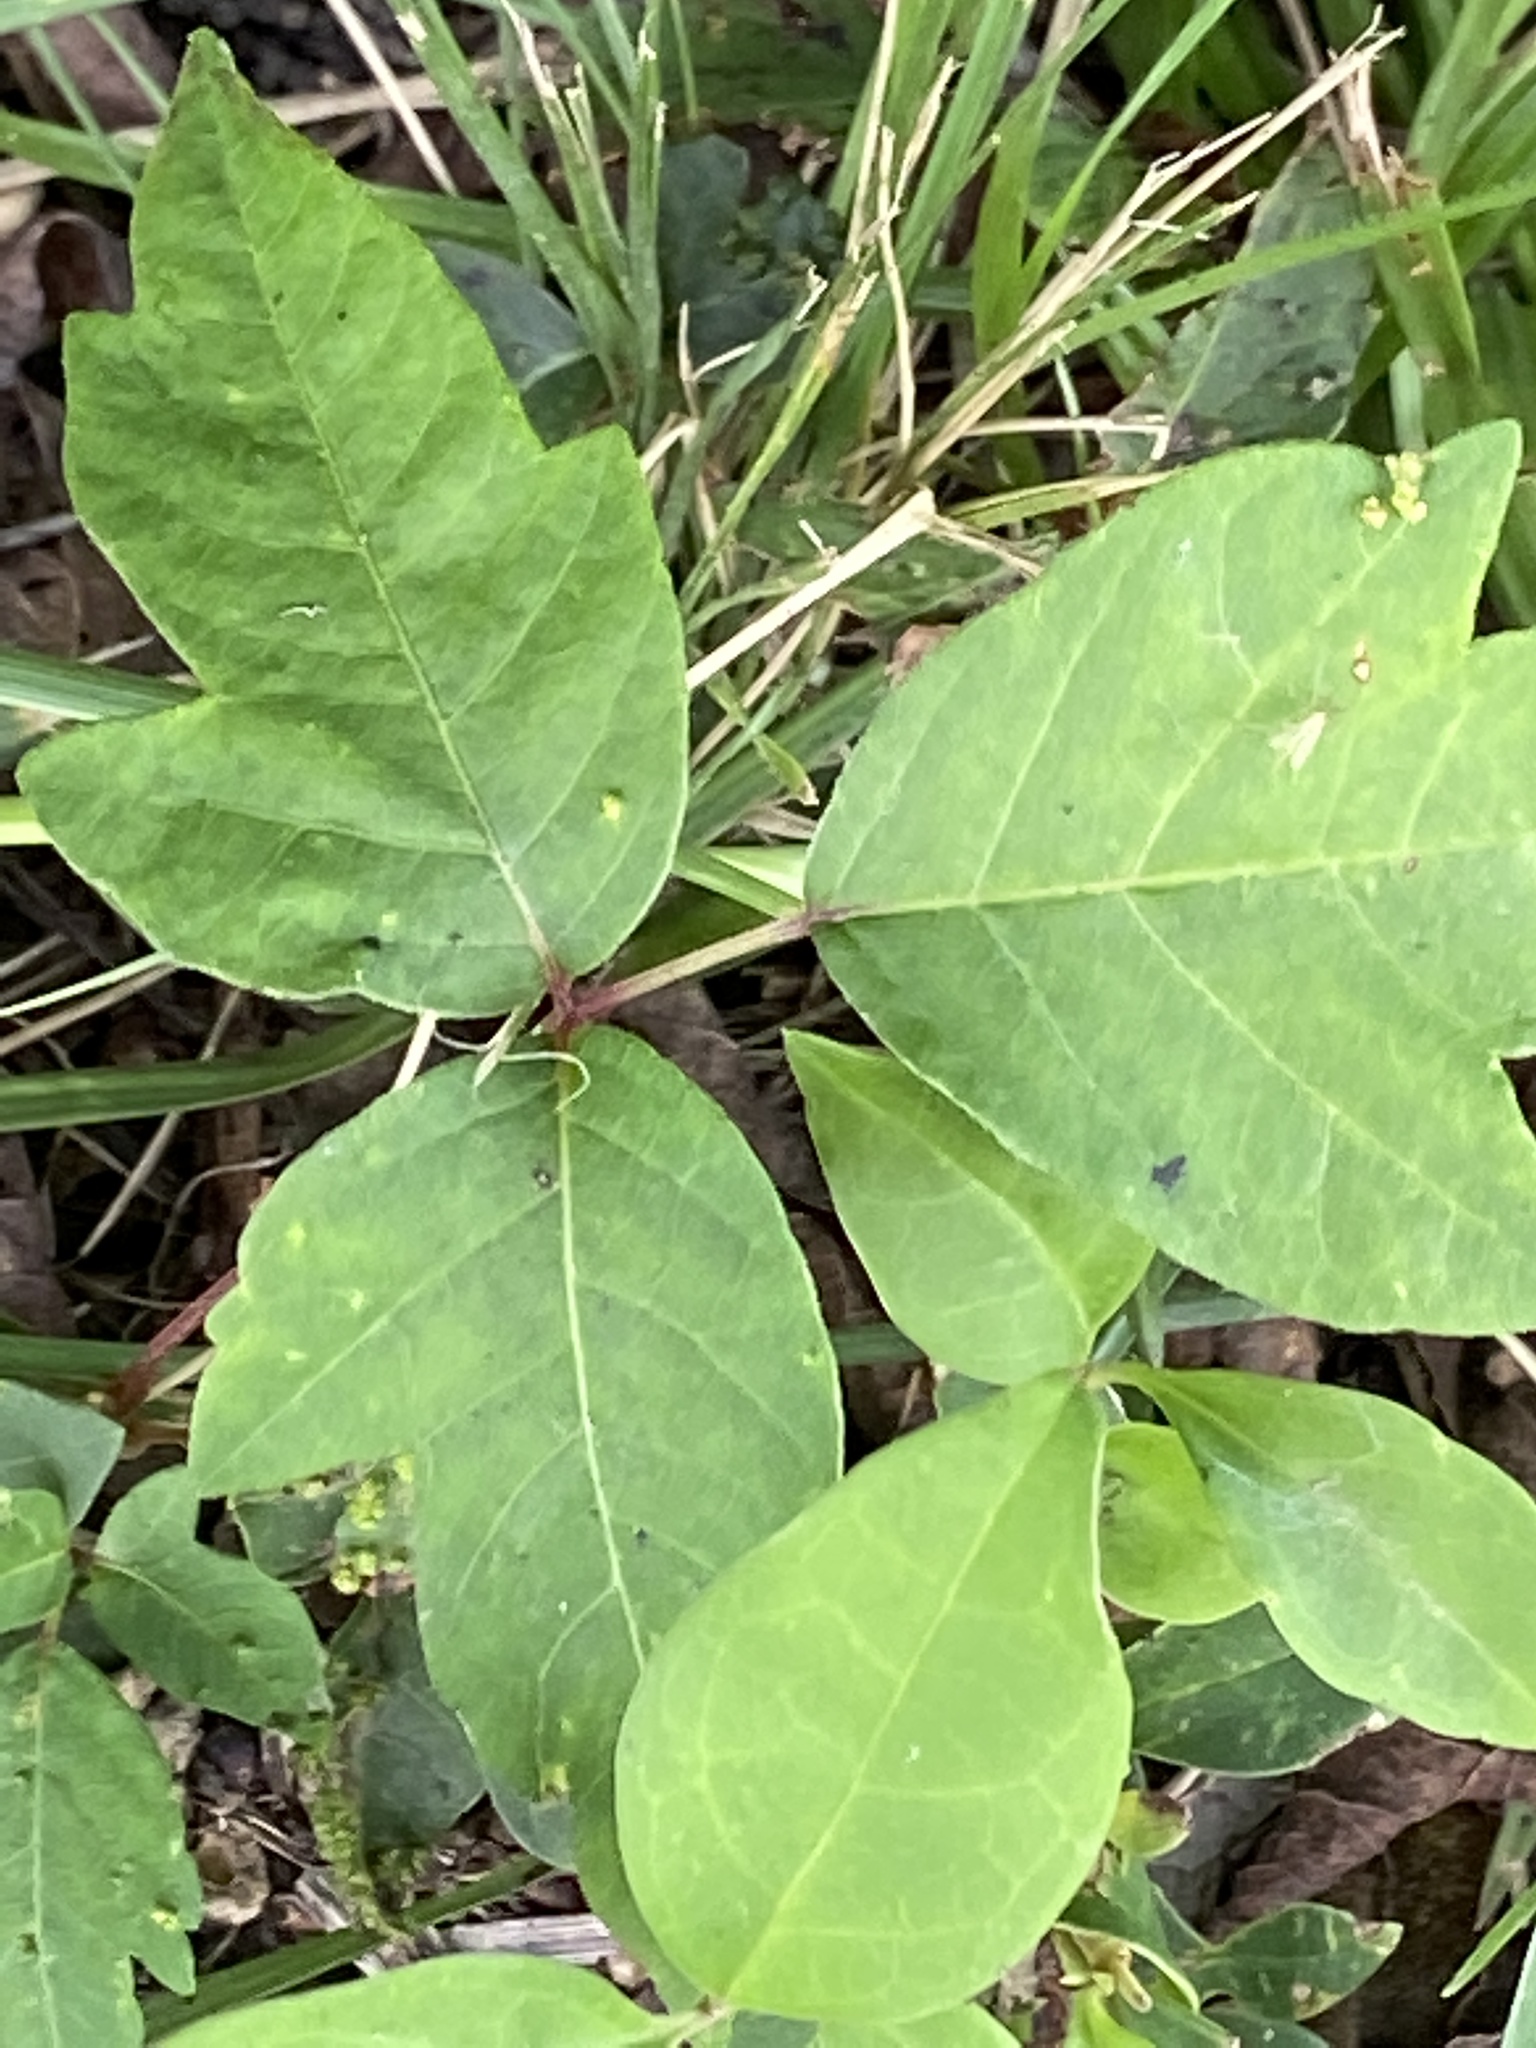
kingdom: Plantae
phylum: Tracheophyta
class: Magnoliopsida
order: Sapindales
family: Anacardiaceae
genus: Toxicodendron
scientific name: Toxicodendron radicans
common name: Poison ivy
